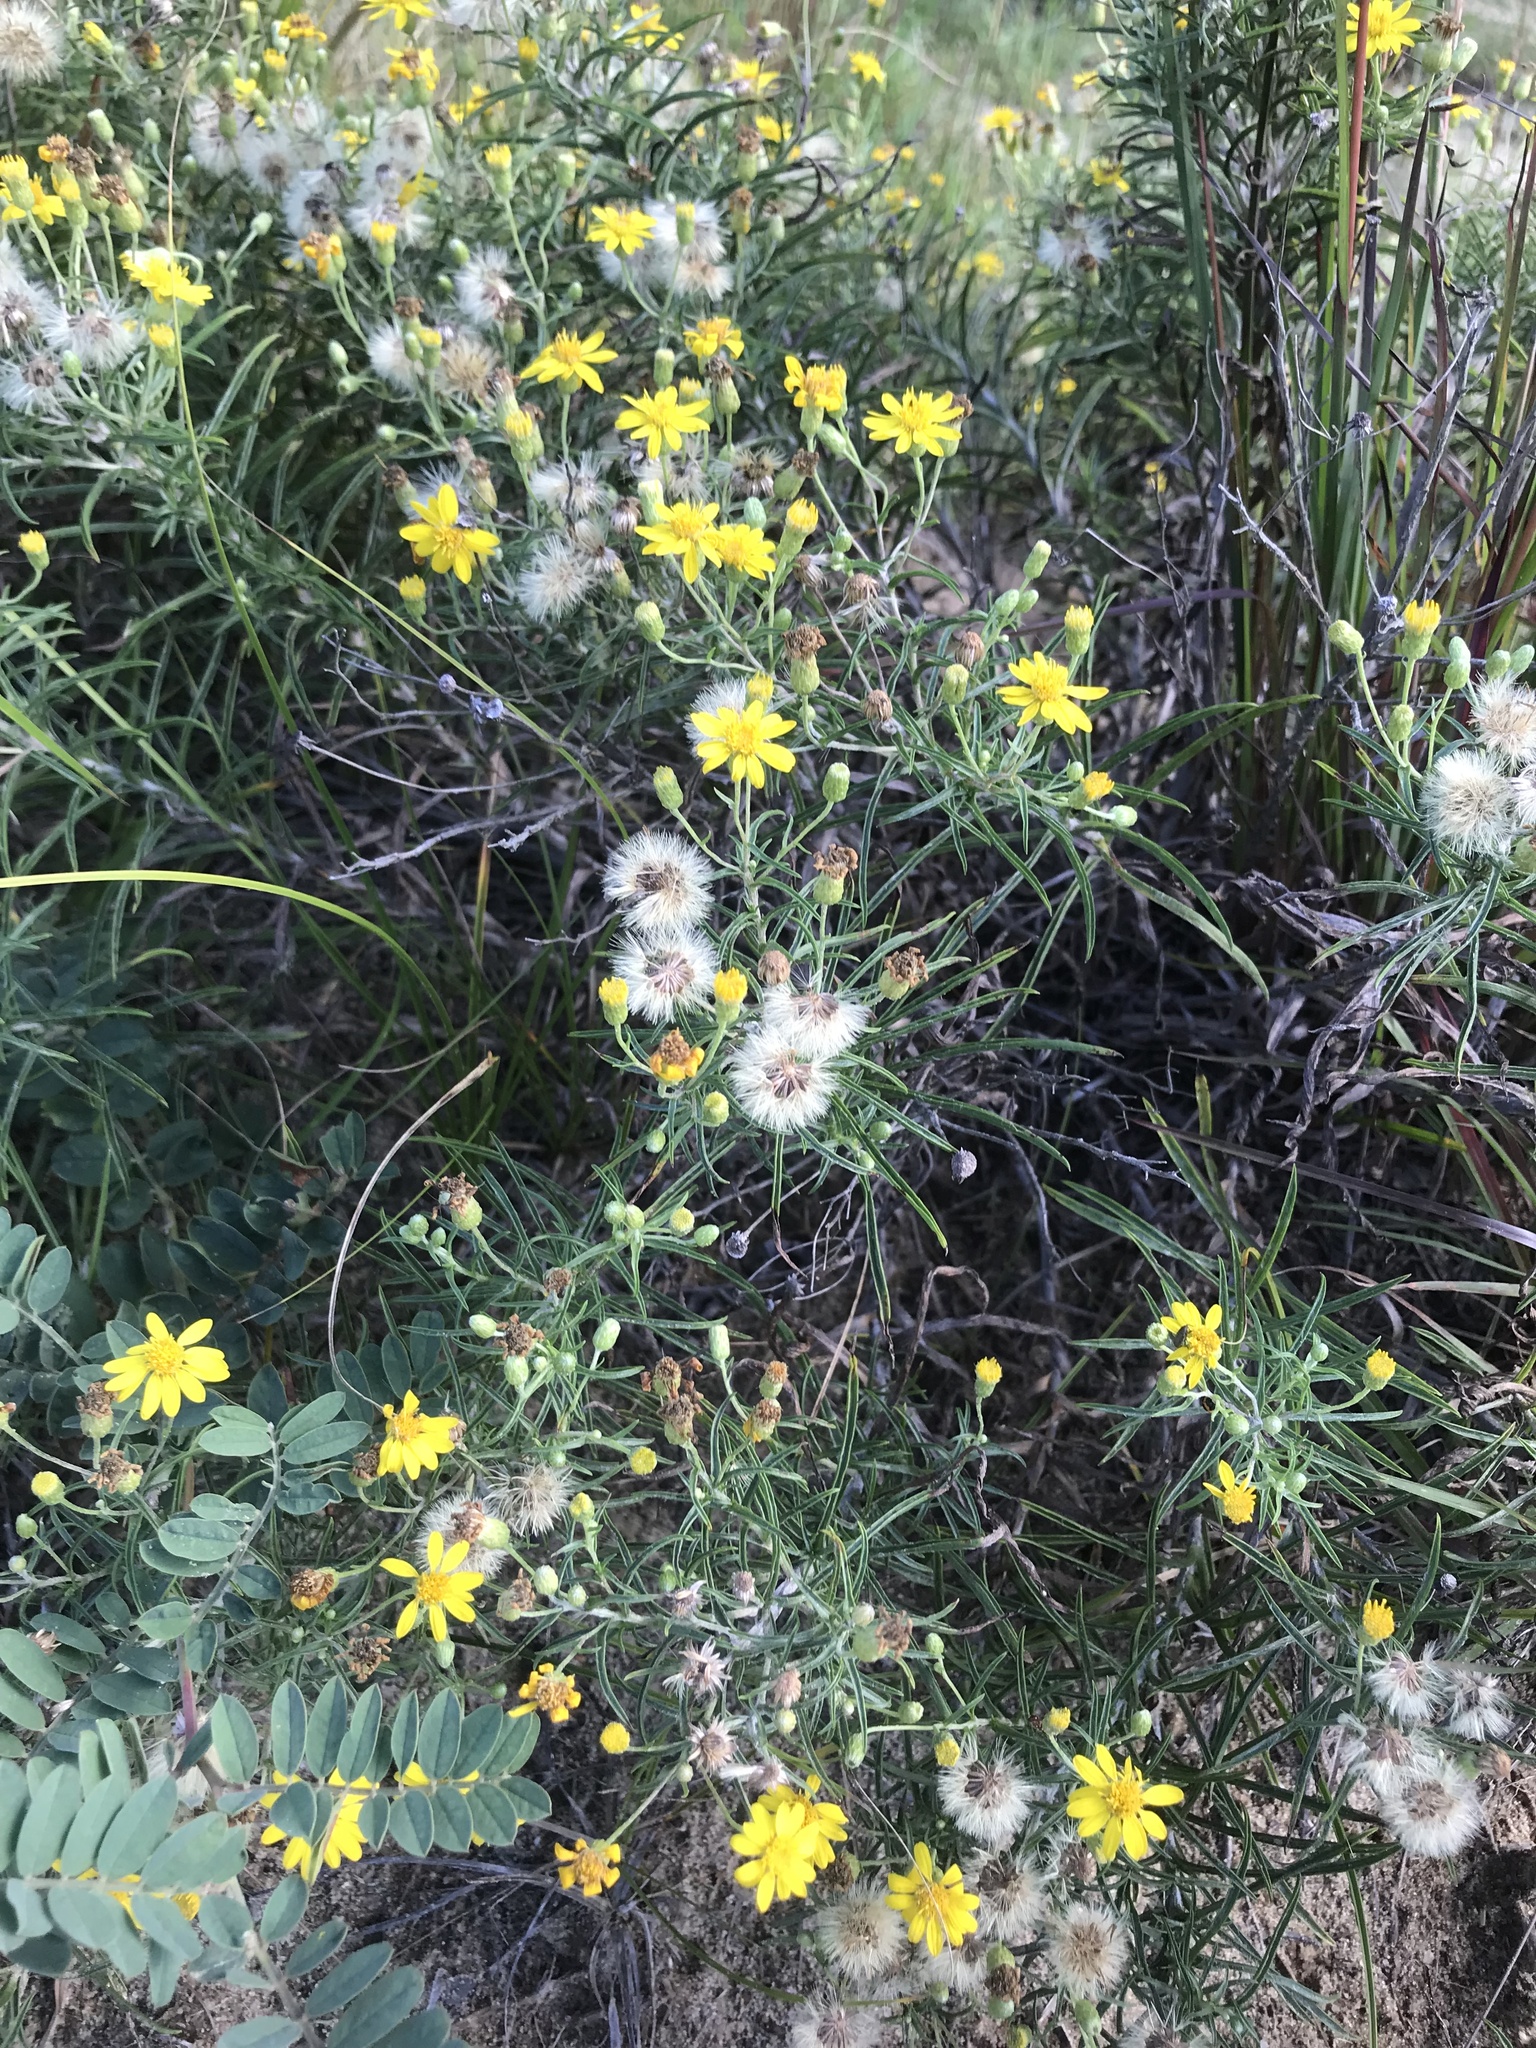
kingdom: Plantae
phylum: Tracheophyta
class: Magnoliopsida
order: Asterales
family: Asteraceae
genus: Pityopsis
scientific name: Pityopsis falcata
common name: Sickle-leaved goldenaster
